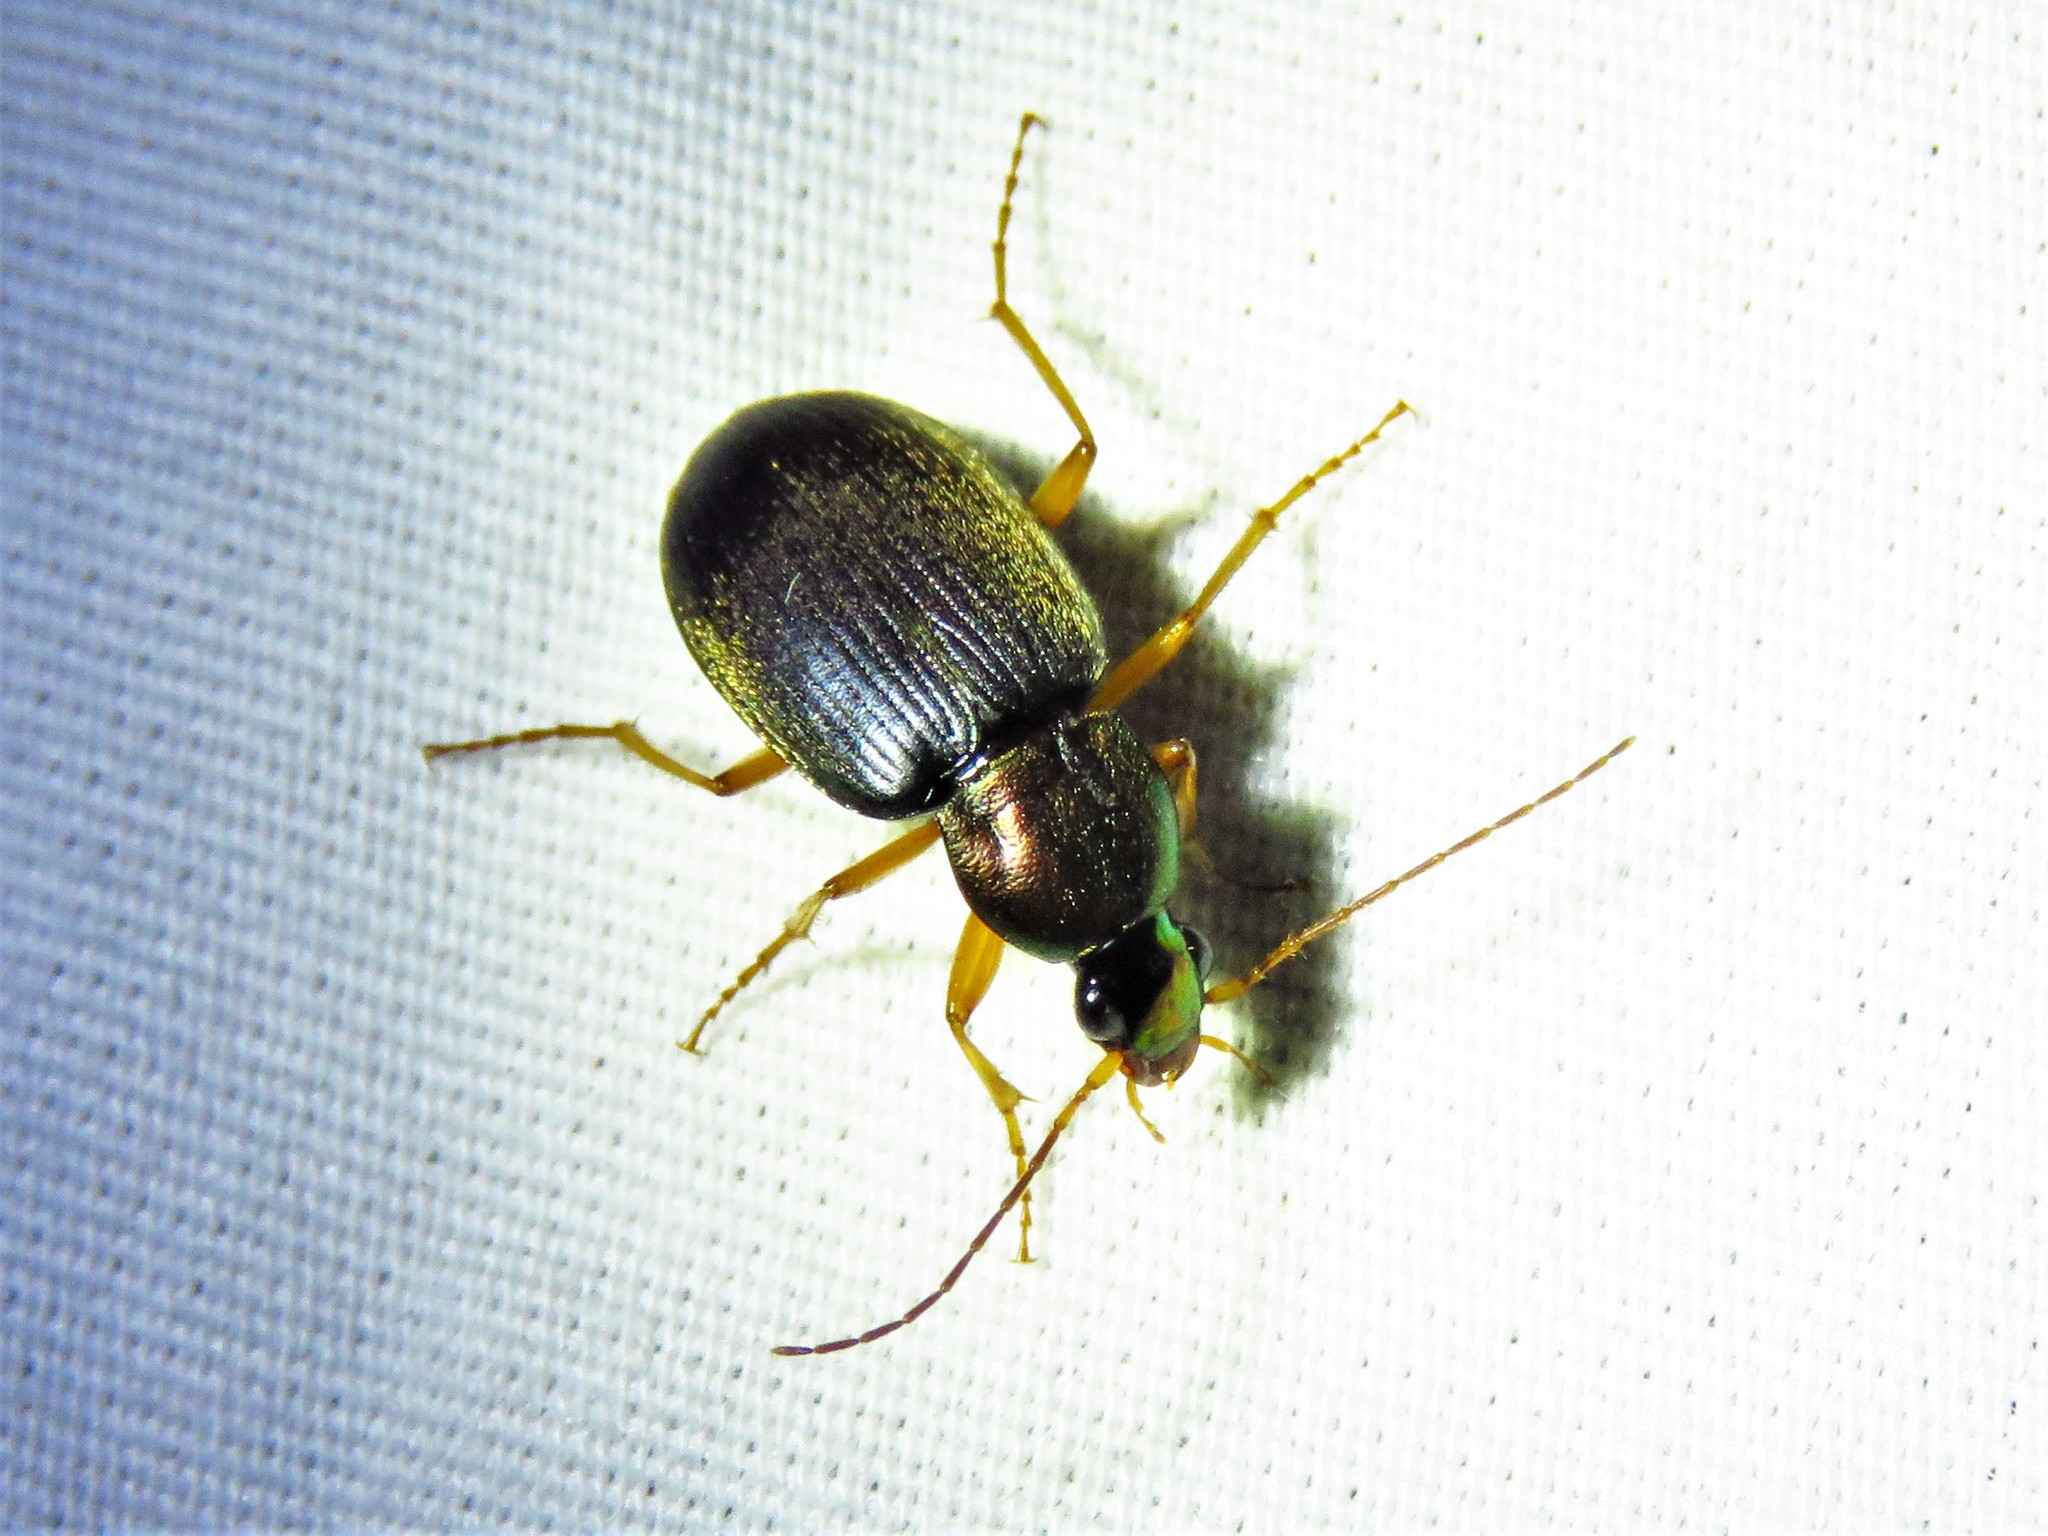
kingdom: Animalia
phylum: Arthropoda
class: Insecta
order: Coleoptera
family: Carabidae
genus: Chlaenius
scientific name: Chlaenius tricolor
